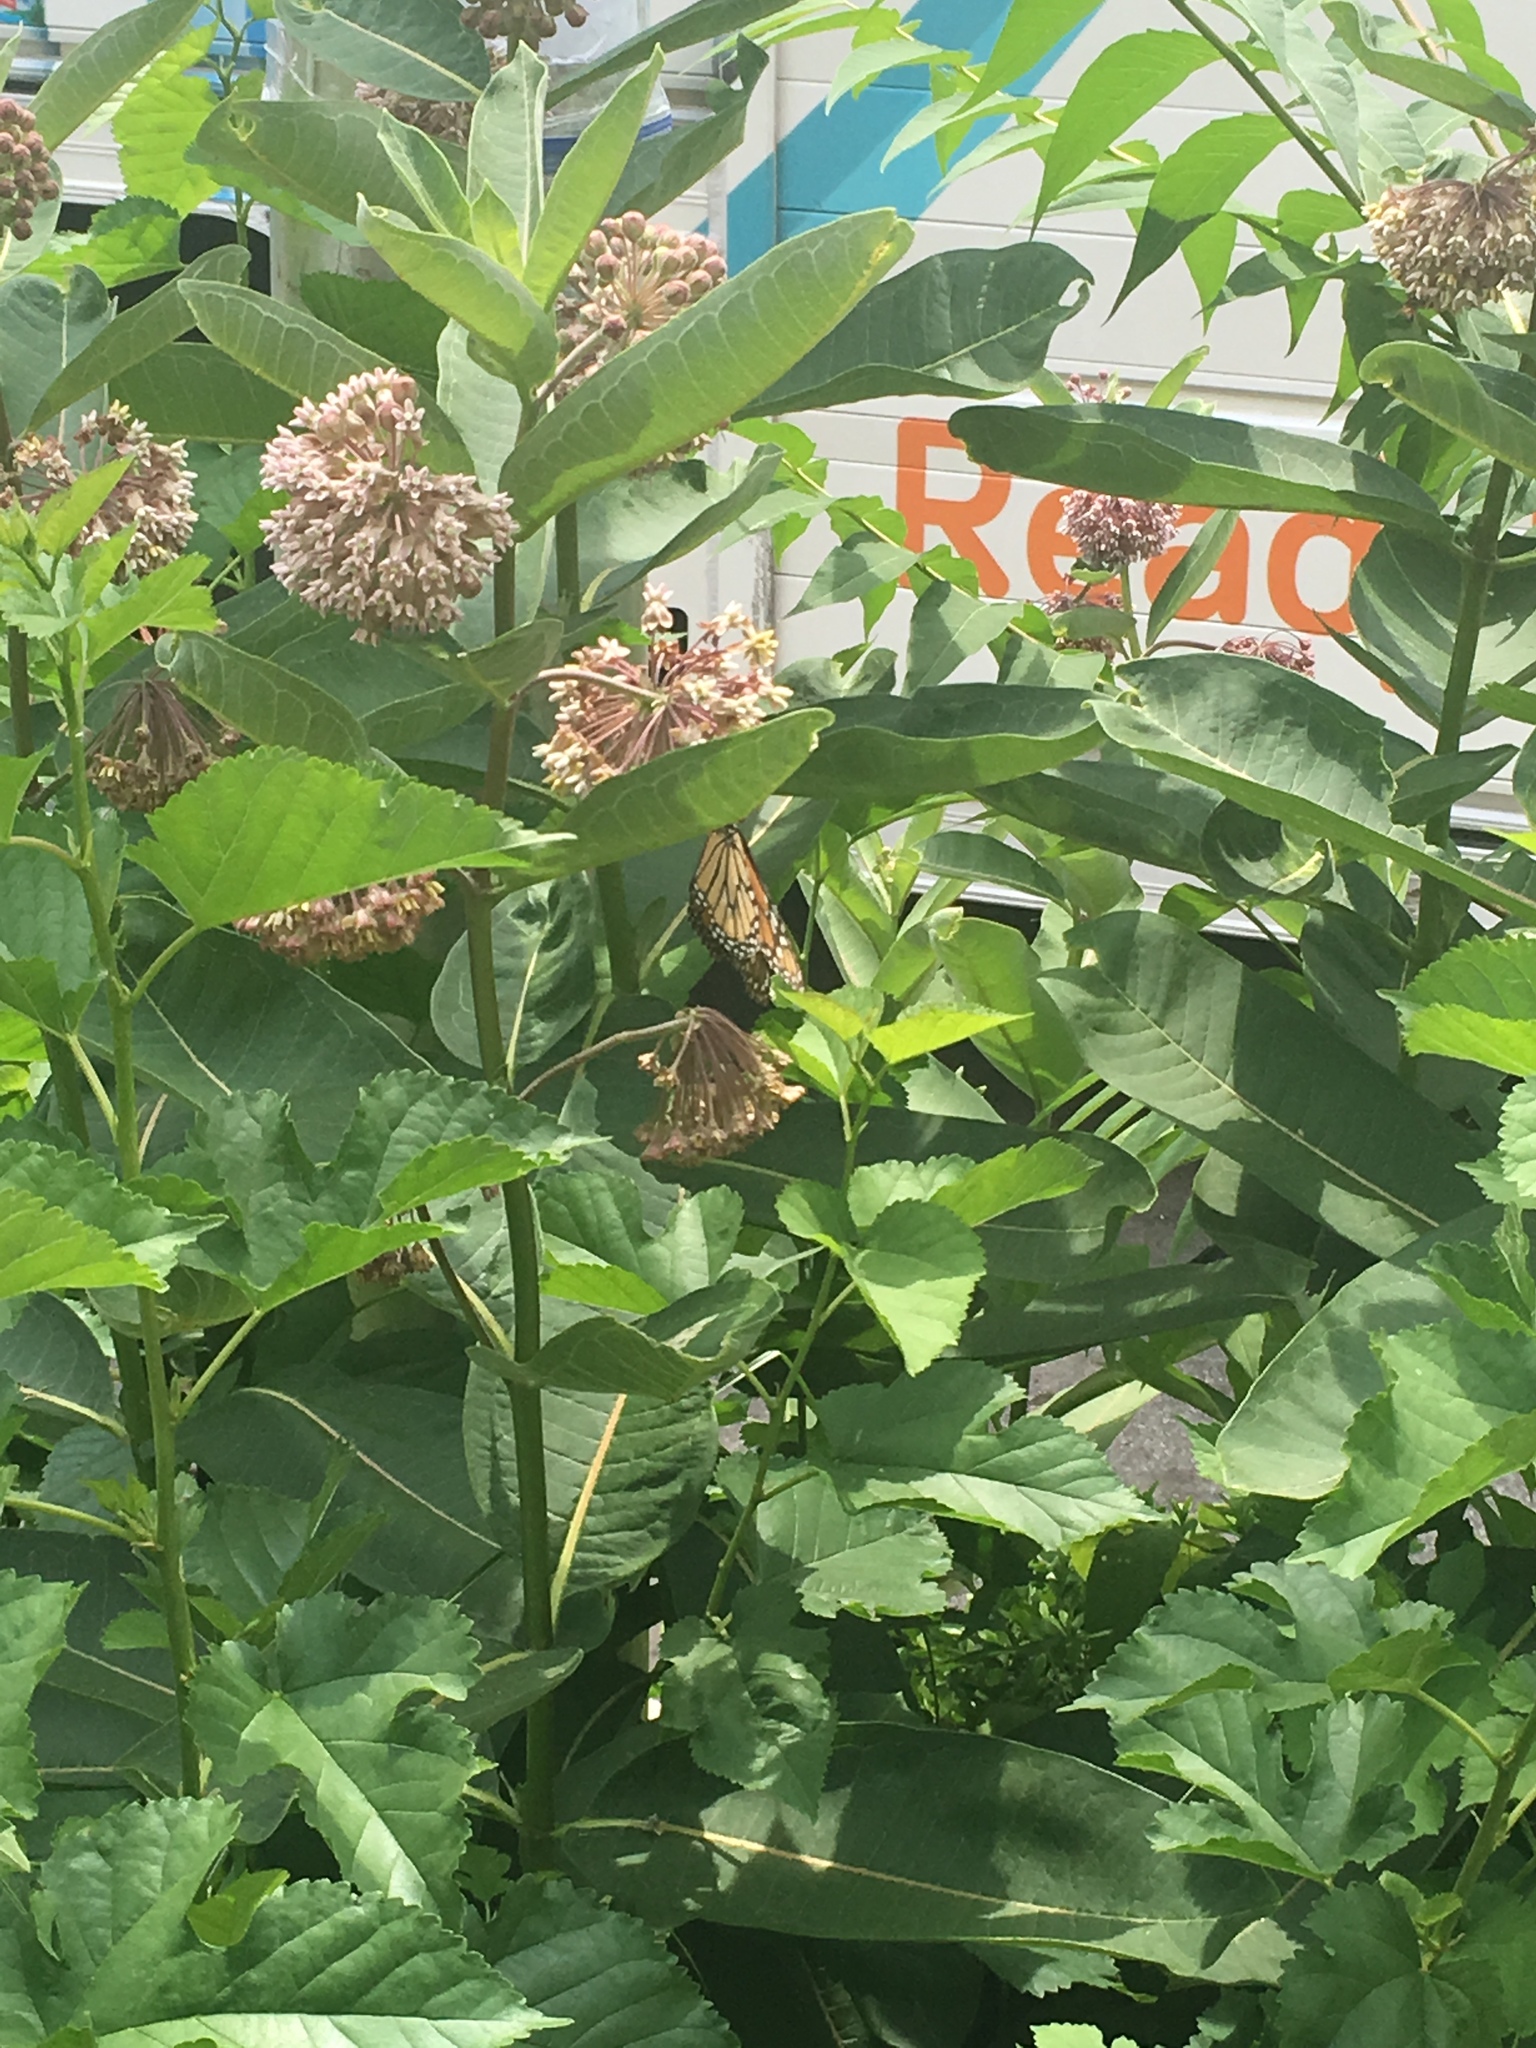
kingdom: Animalia
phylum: Arthropoda
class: Insecta
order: Lepidoptera
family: Nymphalidae
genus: Danaus
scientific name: Danaus plexippus
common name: Monarch
